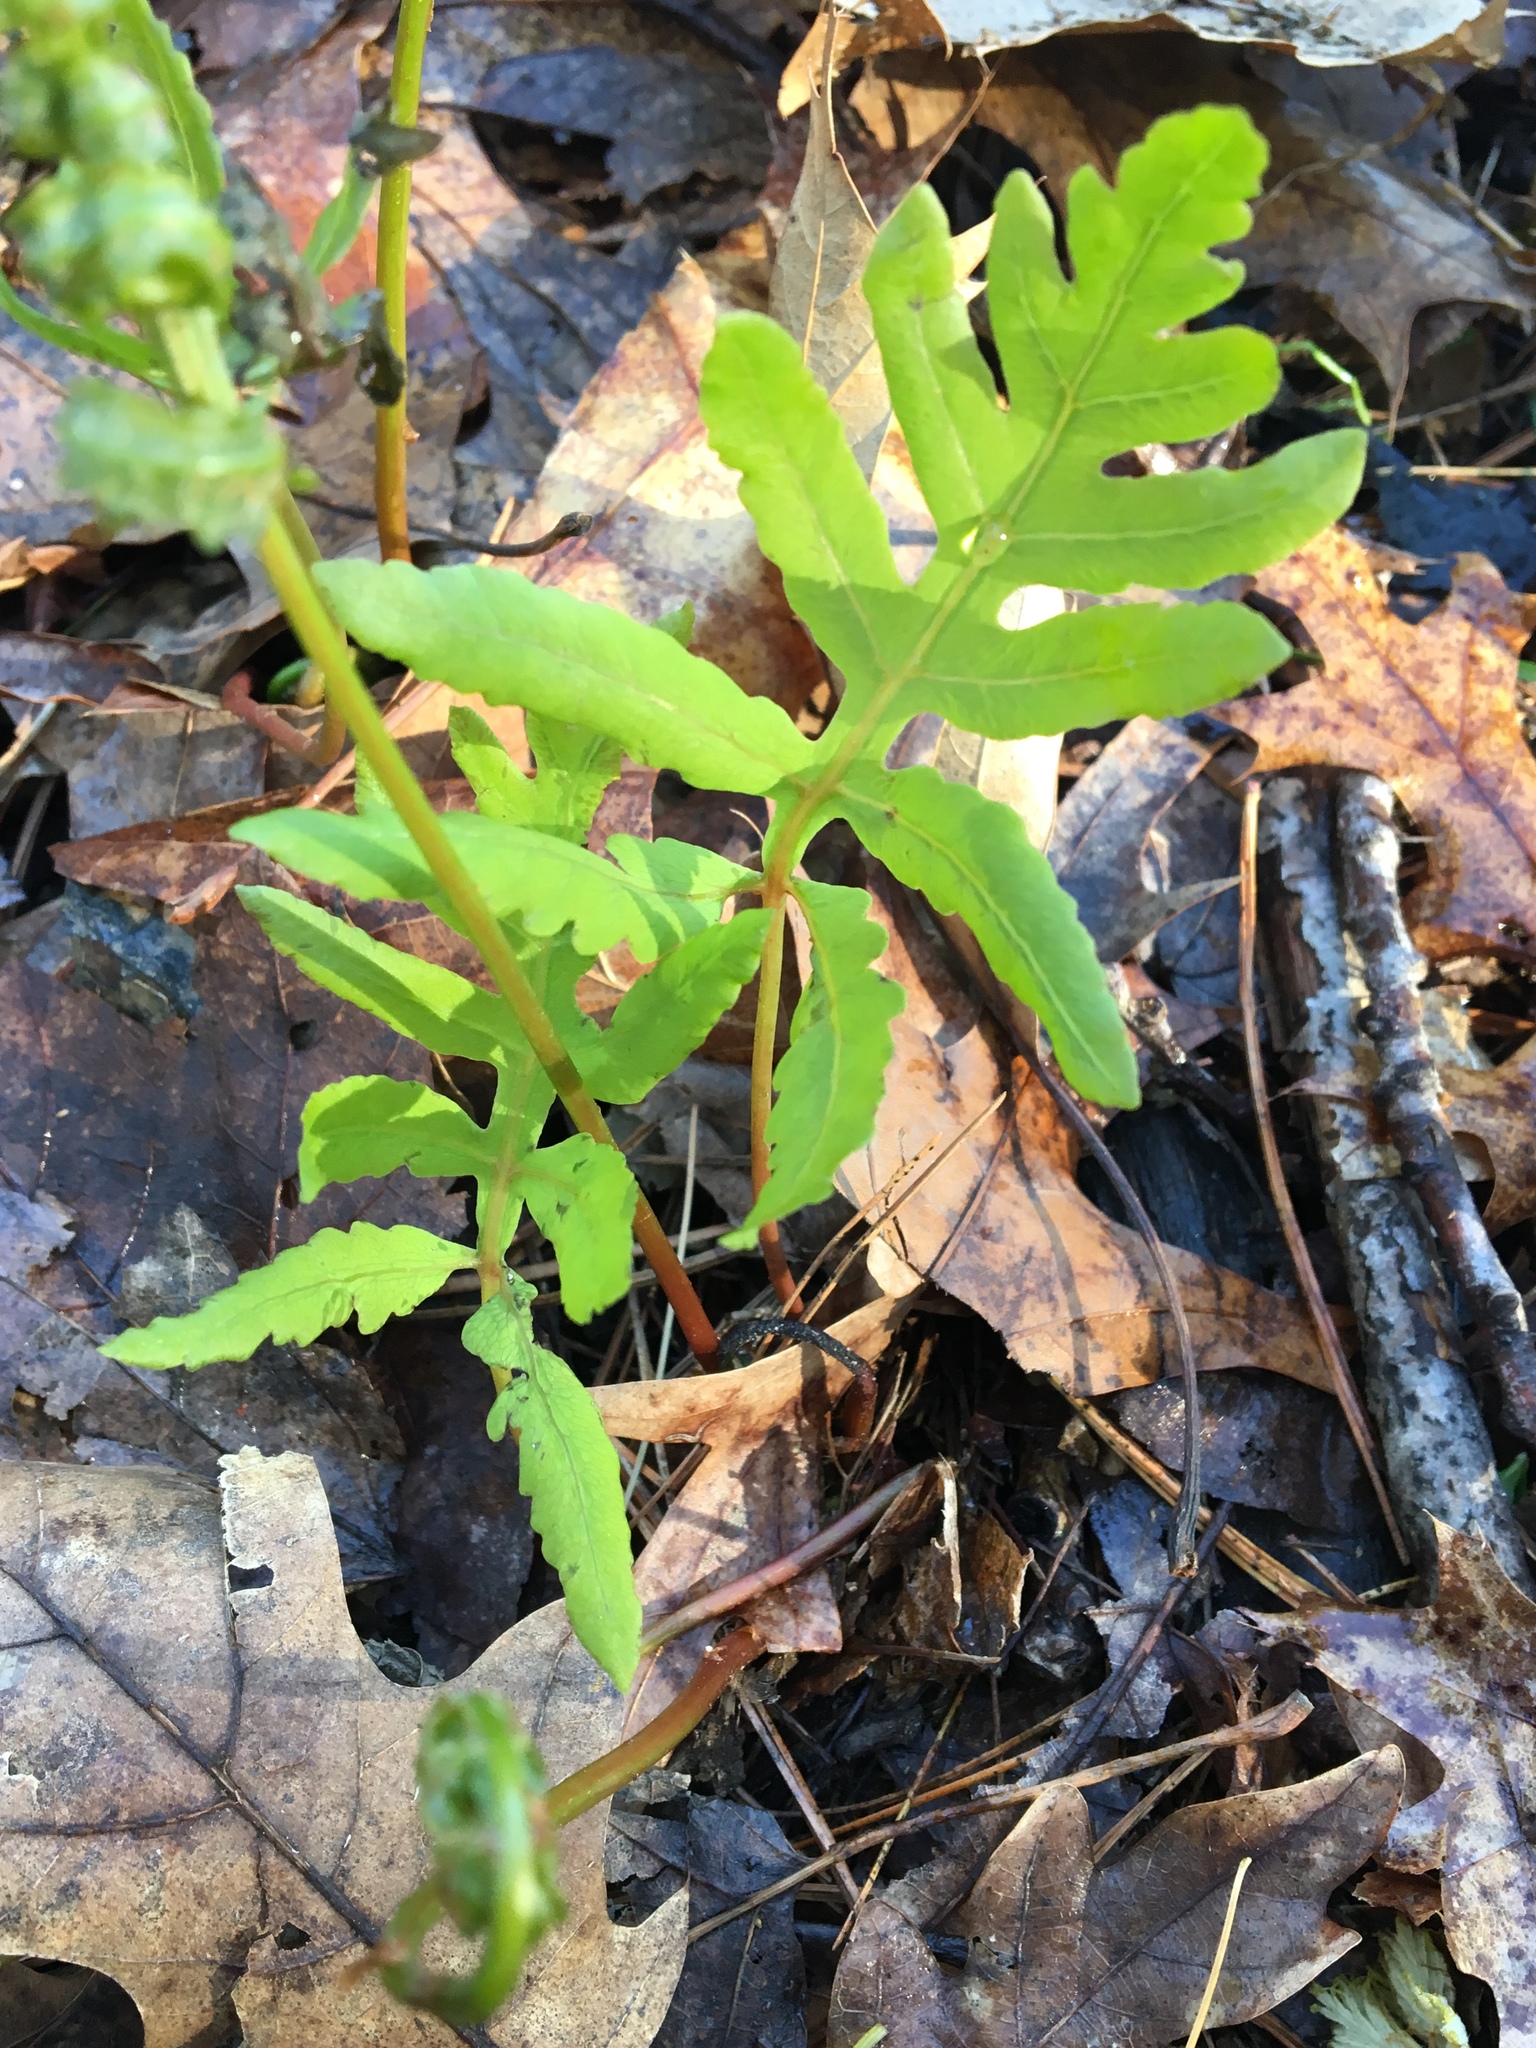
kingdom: Plantae
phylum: Tracheophyta
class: Polypodiopsida
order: Polypodiales
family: Onocleaceae
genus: Onoclea
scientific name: Onoclea sensibilis
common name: Sensitive fern
